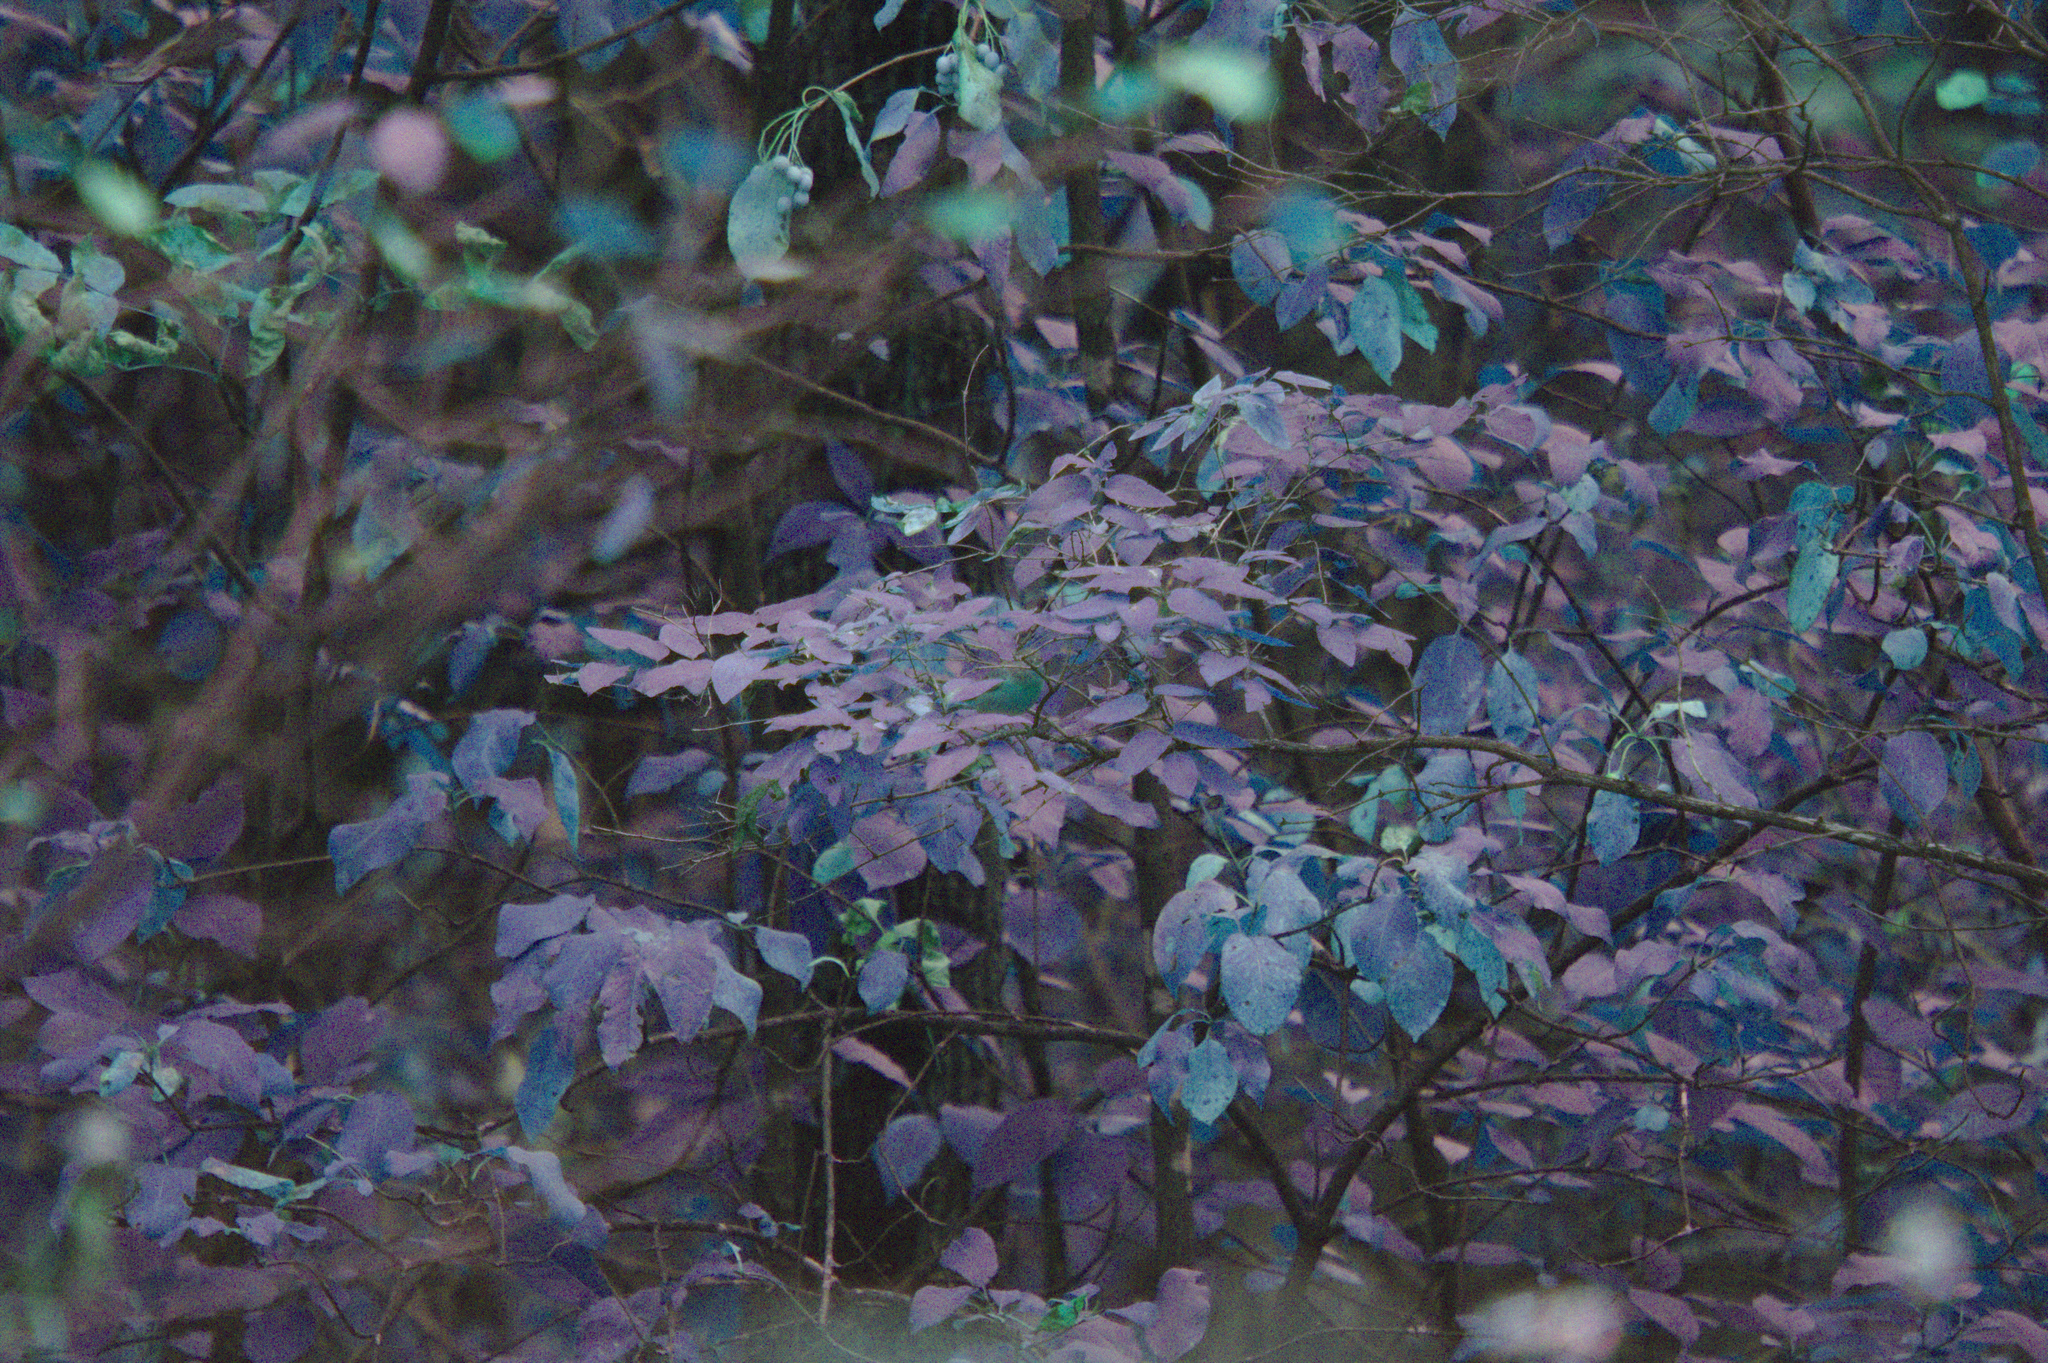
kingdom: Animalia
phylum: Chordata
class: Aves
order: Passeriformes
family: Cardinalidae
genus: Piranga
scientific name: Piranga olivacea
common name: Scarlet tanager
